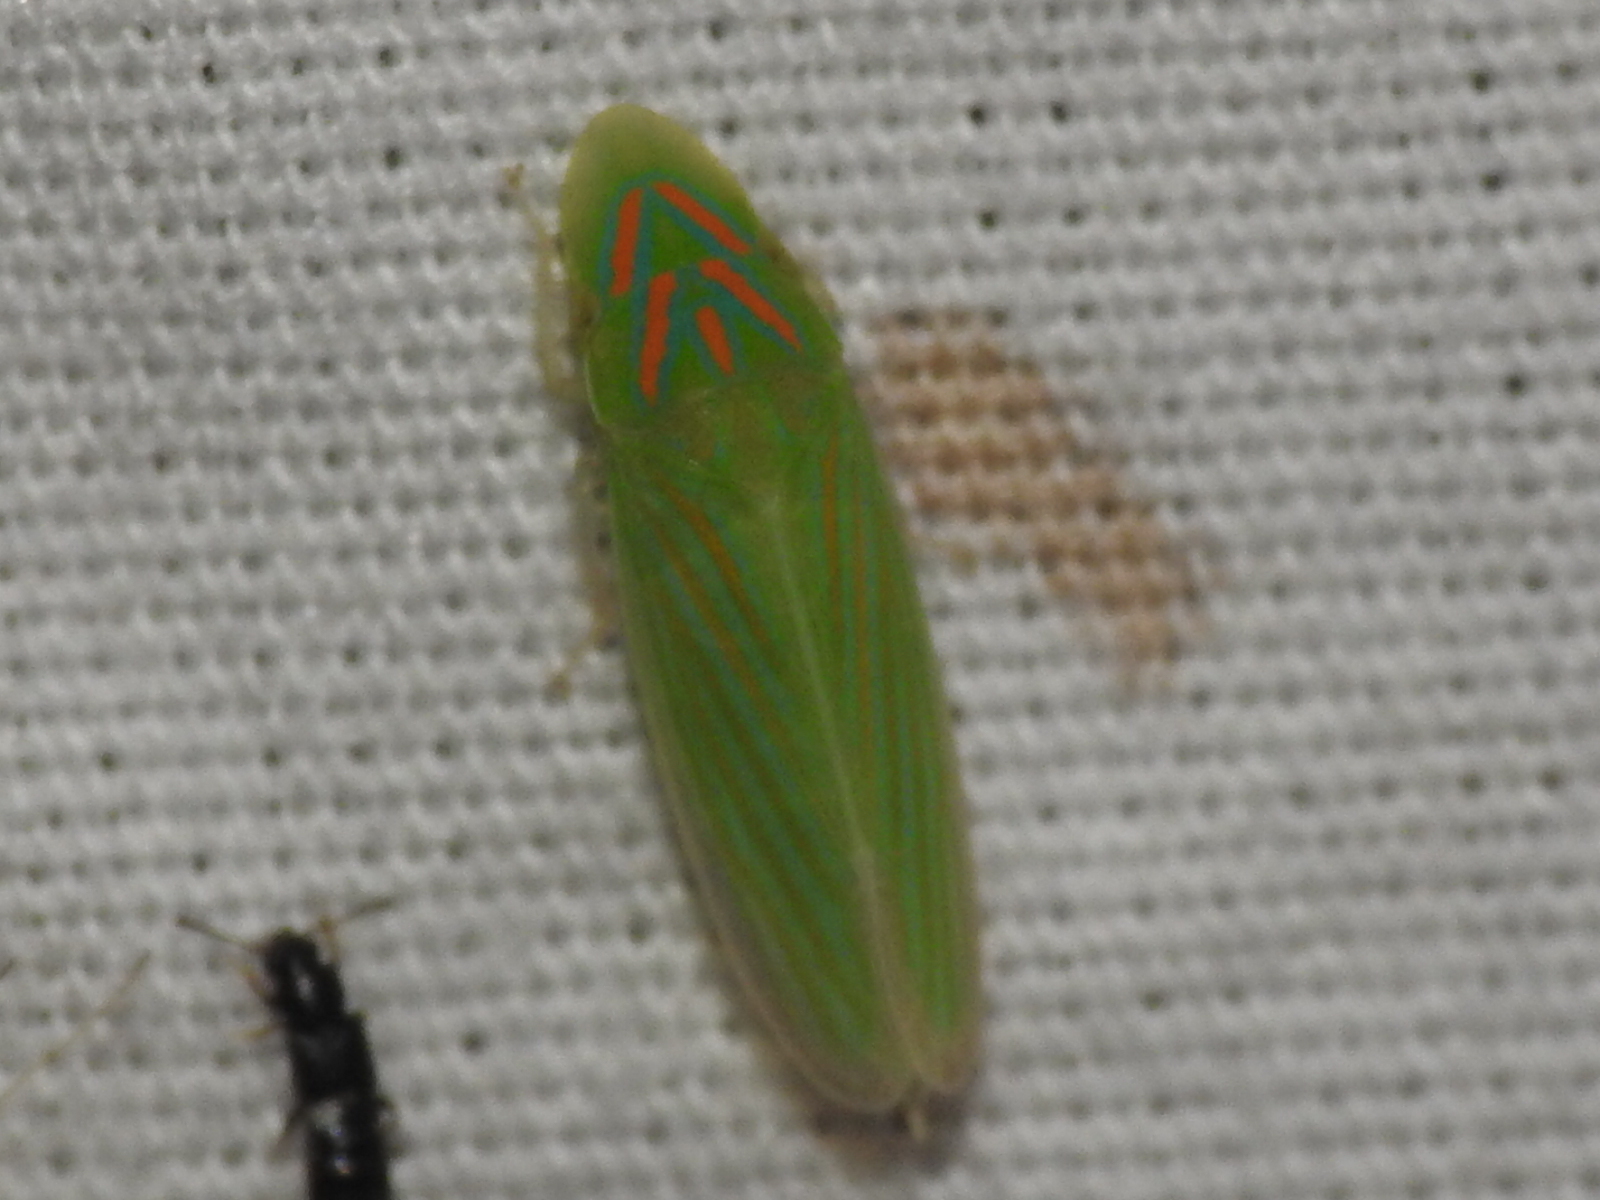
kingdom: Animalia
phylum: Arthropoda
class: Insecta
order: Hemiptera
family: Cicadellidae
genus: Spangbergiella
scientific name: Spangbergiella vulnerata
